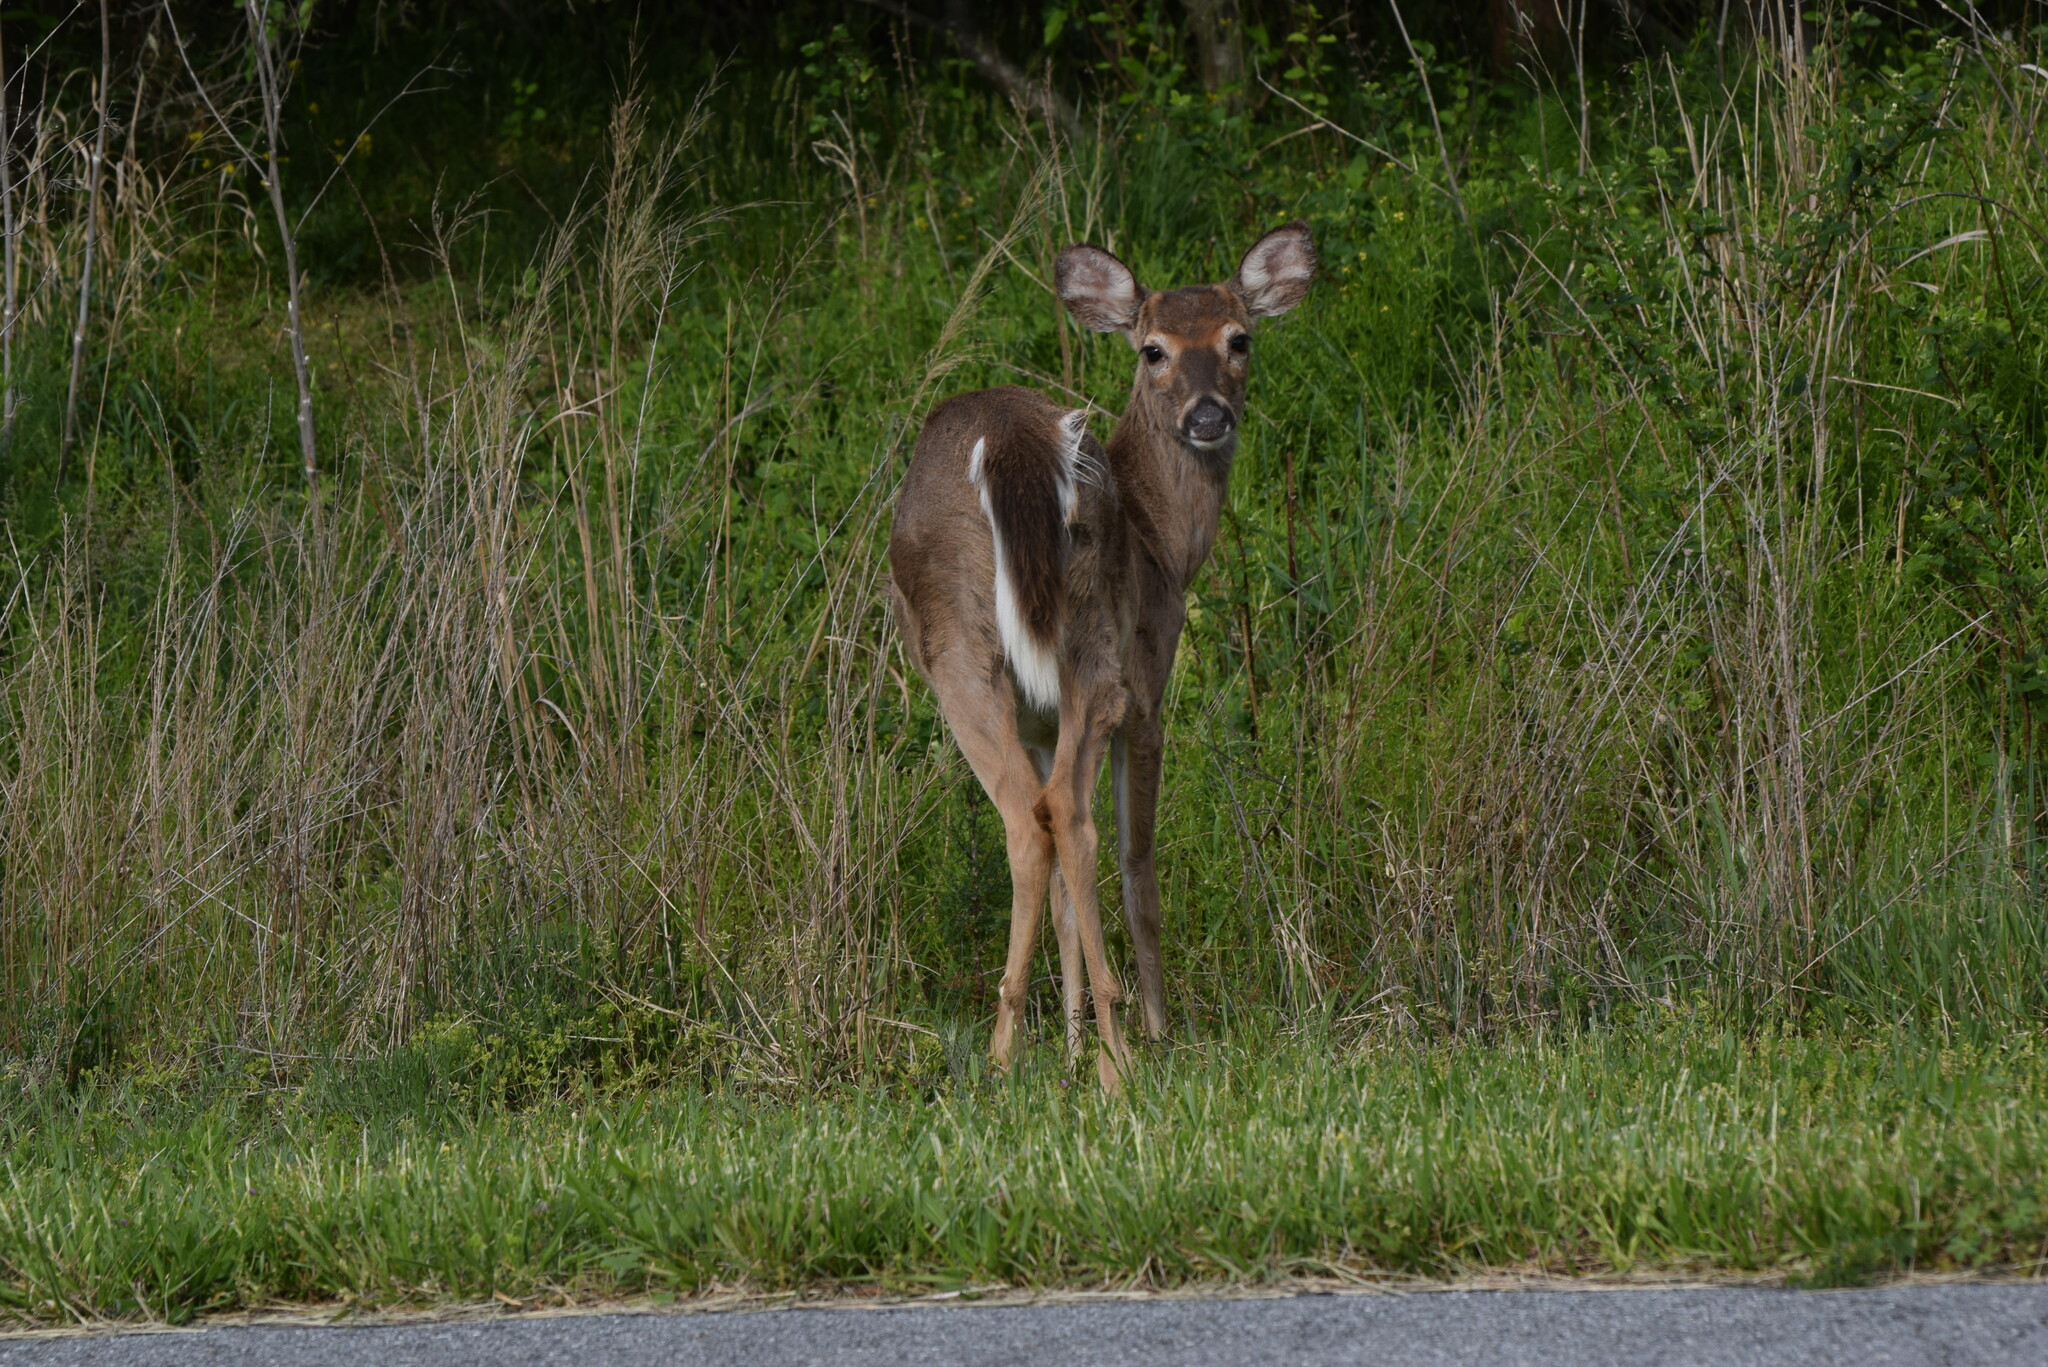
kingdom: Animalia
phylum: Chordata
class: Mammalia
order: Artiodactyla
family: Cervidae
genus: Odocoileus
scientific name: Odocoileus virginianus
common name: White-tailed deer
